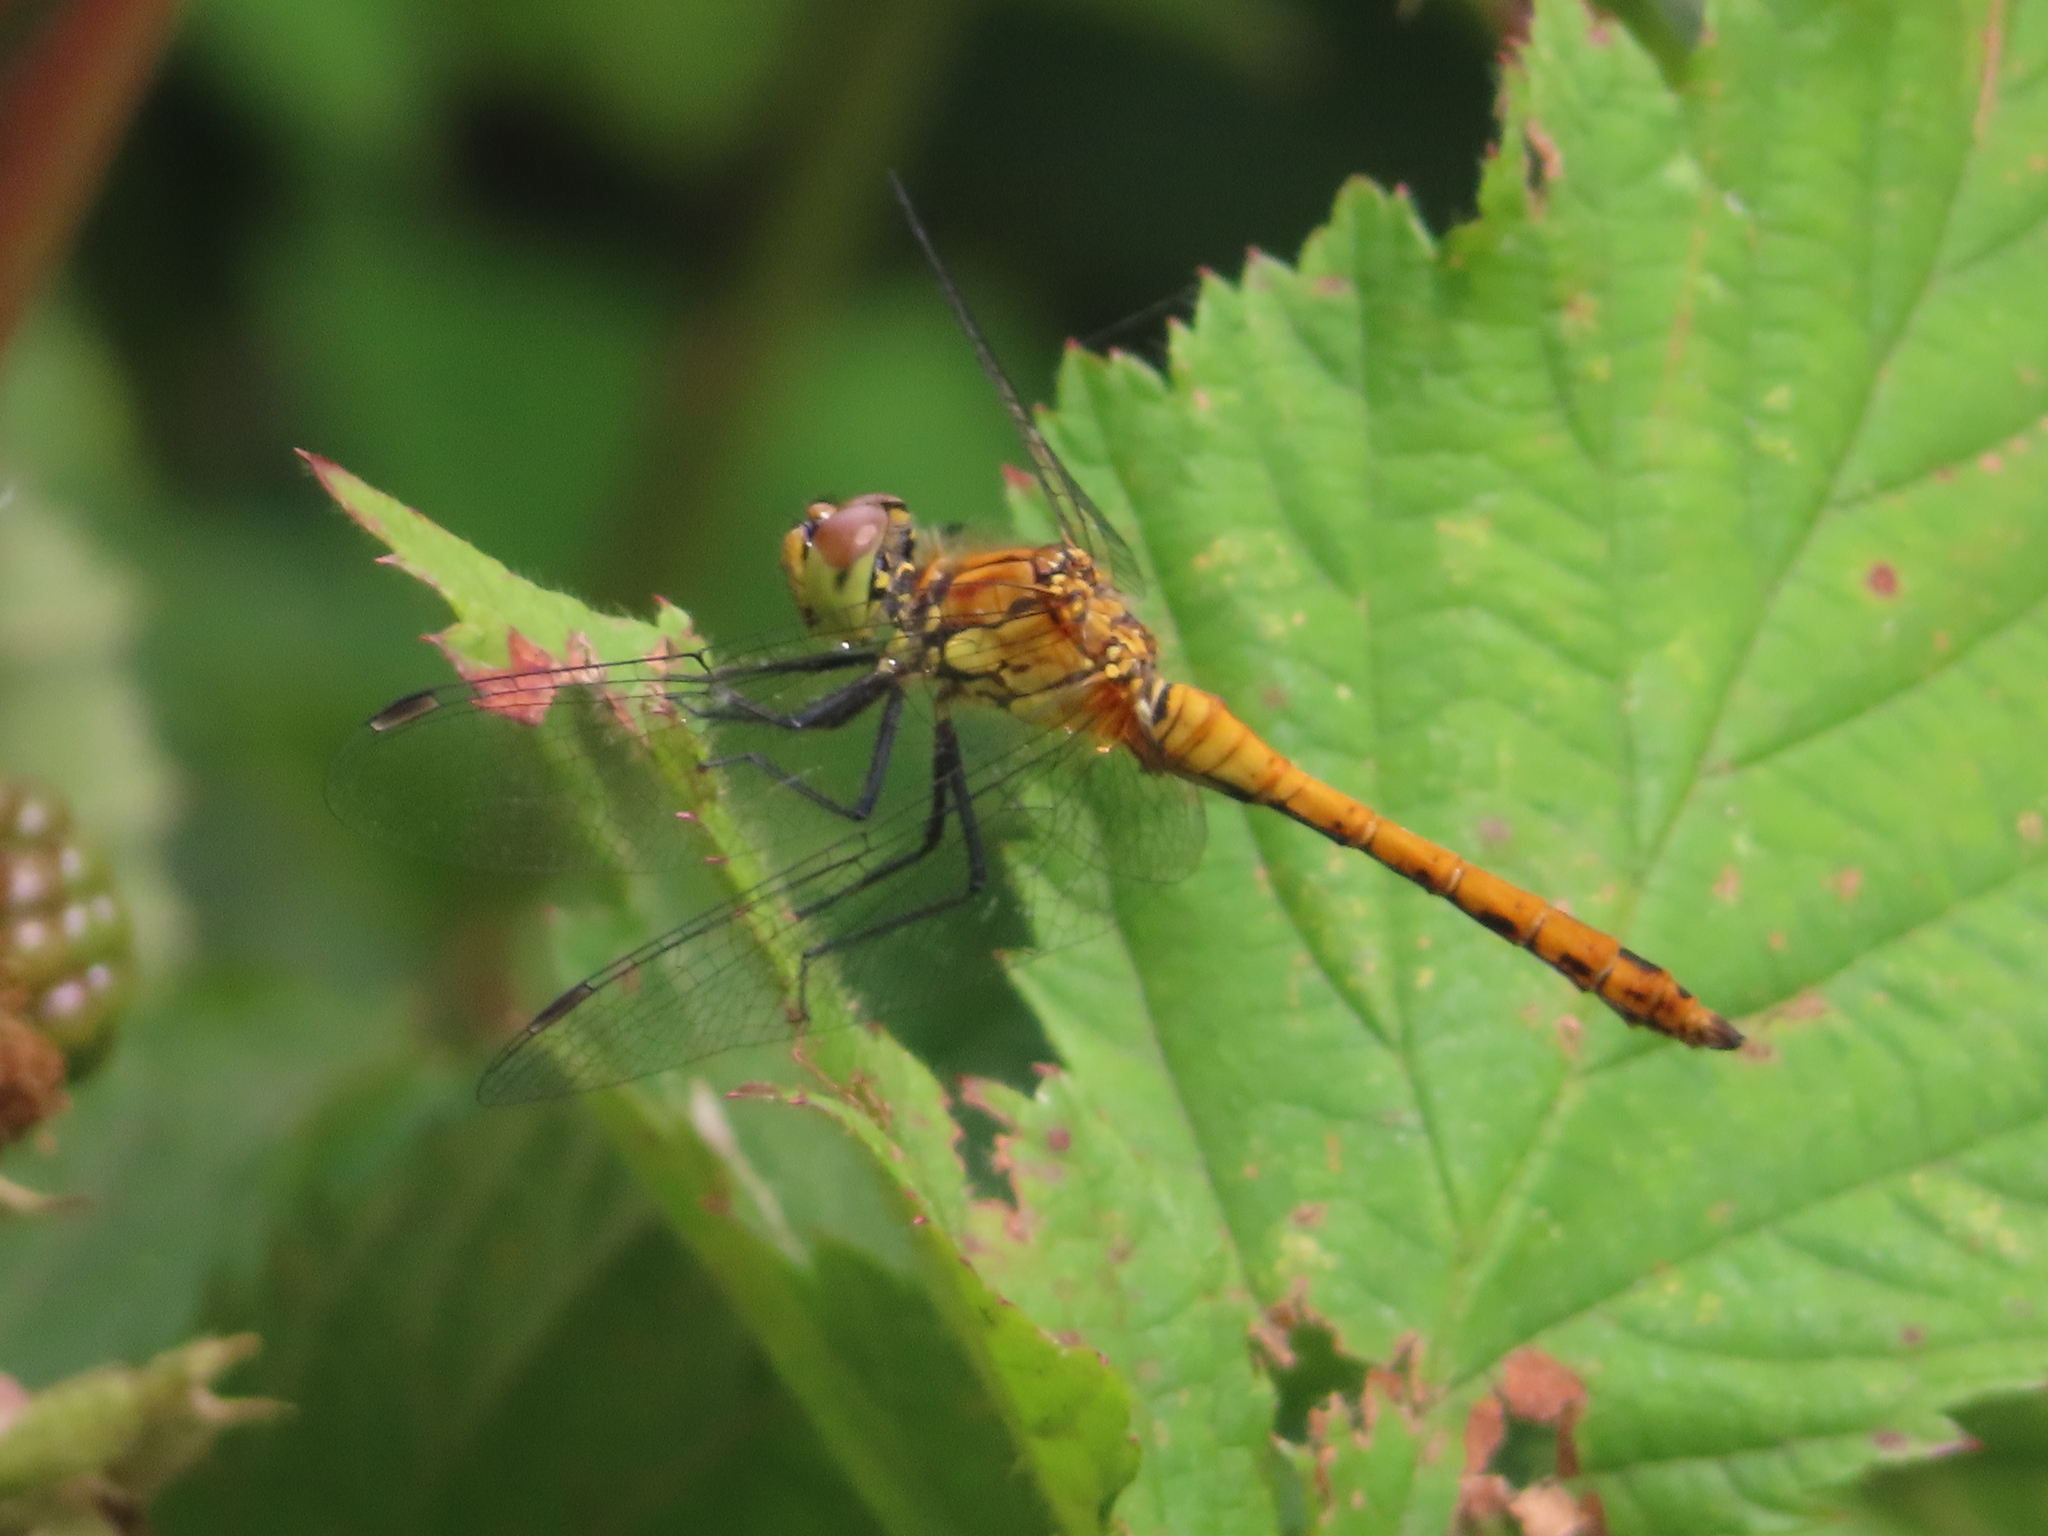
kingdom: Animalia
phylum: Arthropoda
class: Insecta
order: Odonata
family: Libellulidae
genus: Sympetrum
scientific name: Sympetrum sanguineum
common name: Ruddy darter
